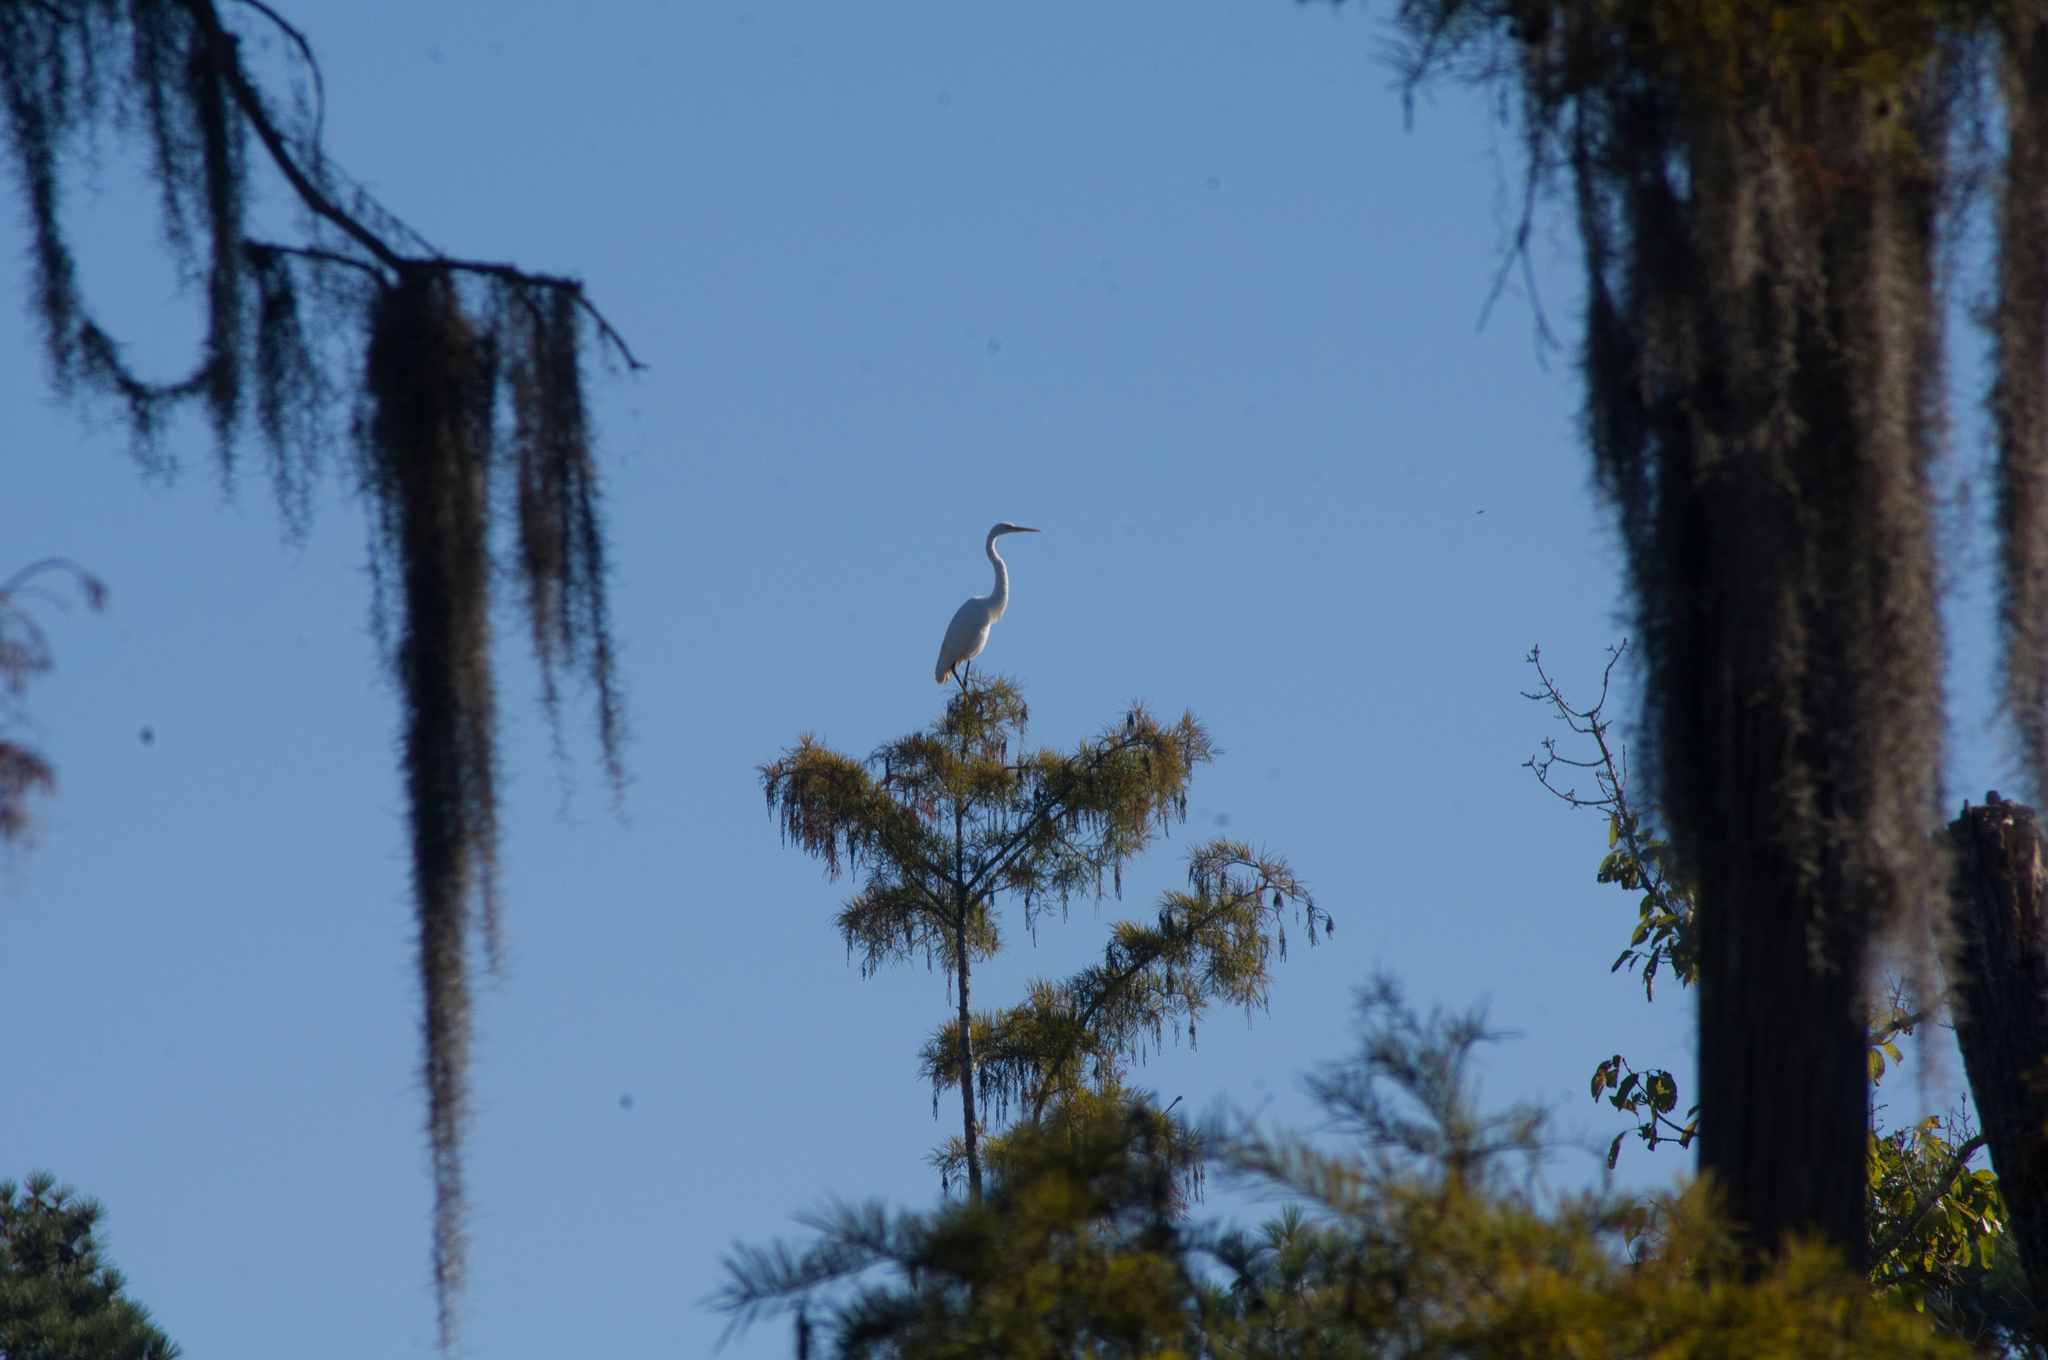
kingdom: Animalia
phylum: Chordata
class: Aves
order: Pelecaniformes
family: Ardeidae
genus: Ardea
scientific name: Ardea alba
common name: Great egret
